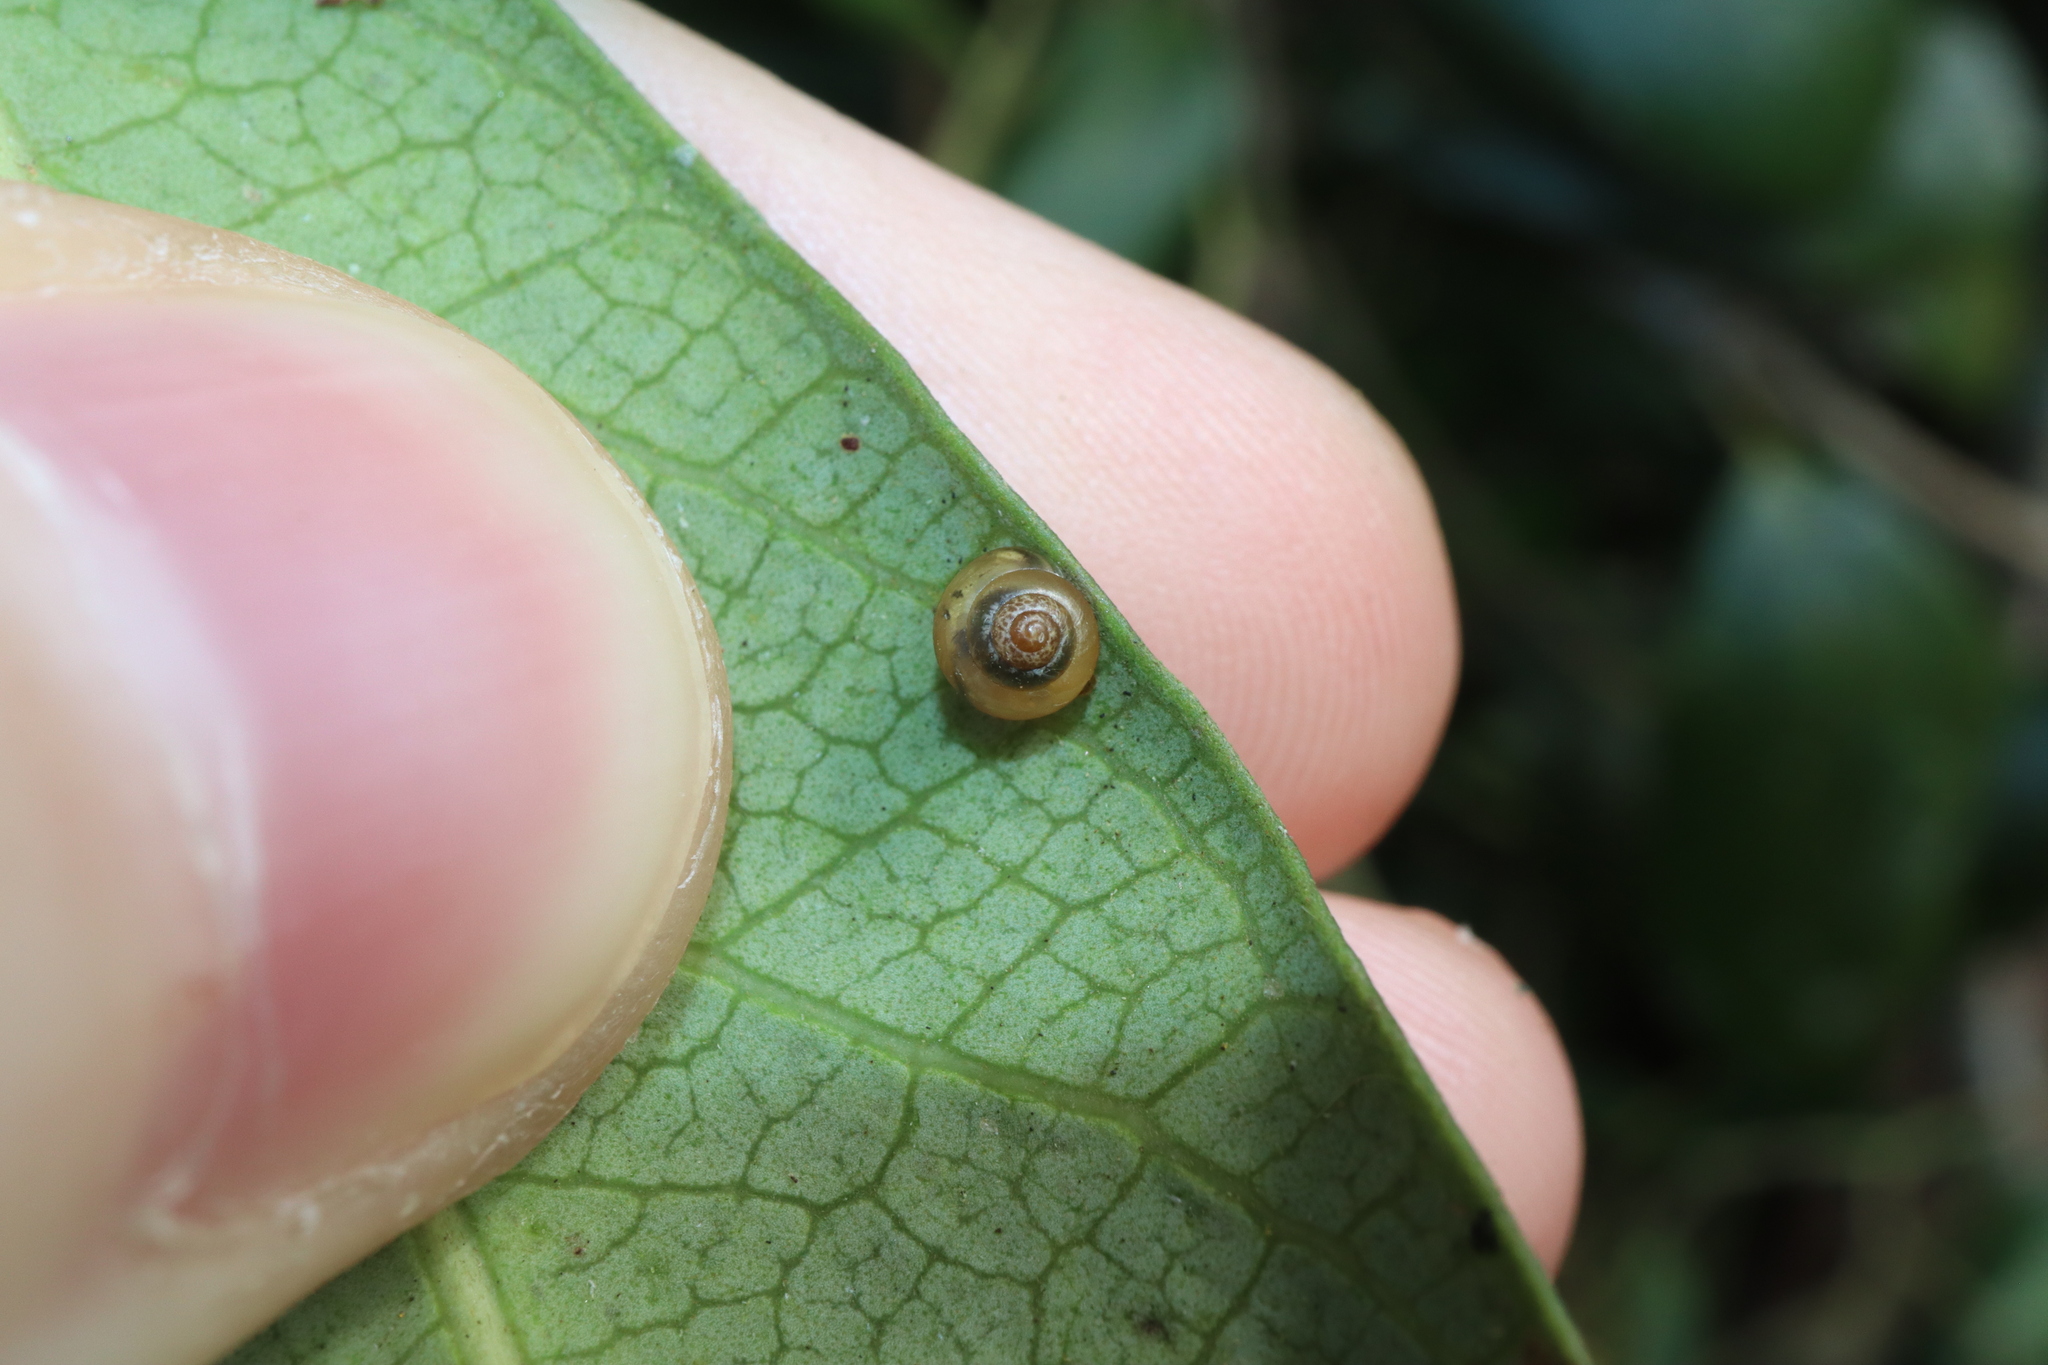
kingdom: Animalia
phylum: Mollusca
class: Gastropoda
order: Stylommatophora
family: Euconulidae
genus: Coneuplecta
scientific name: Coneuplecta calculosa
